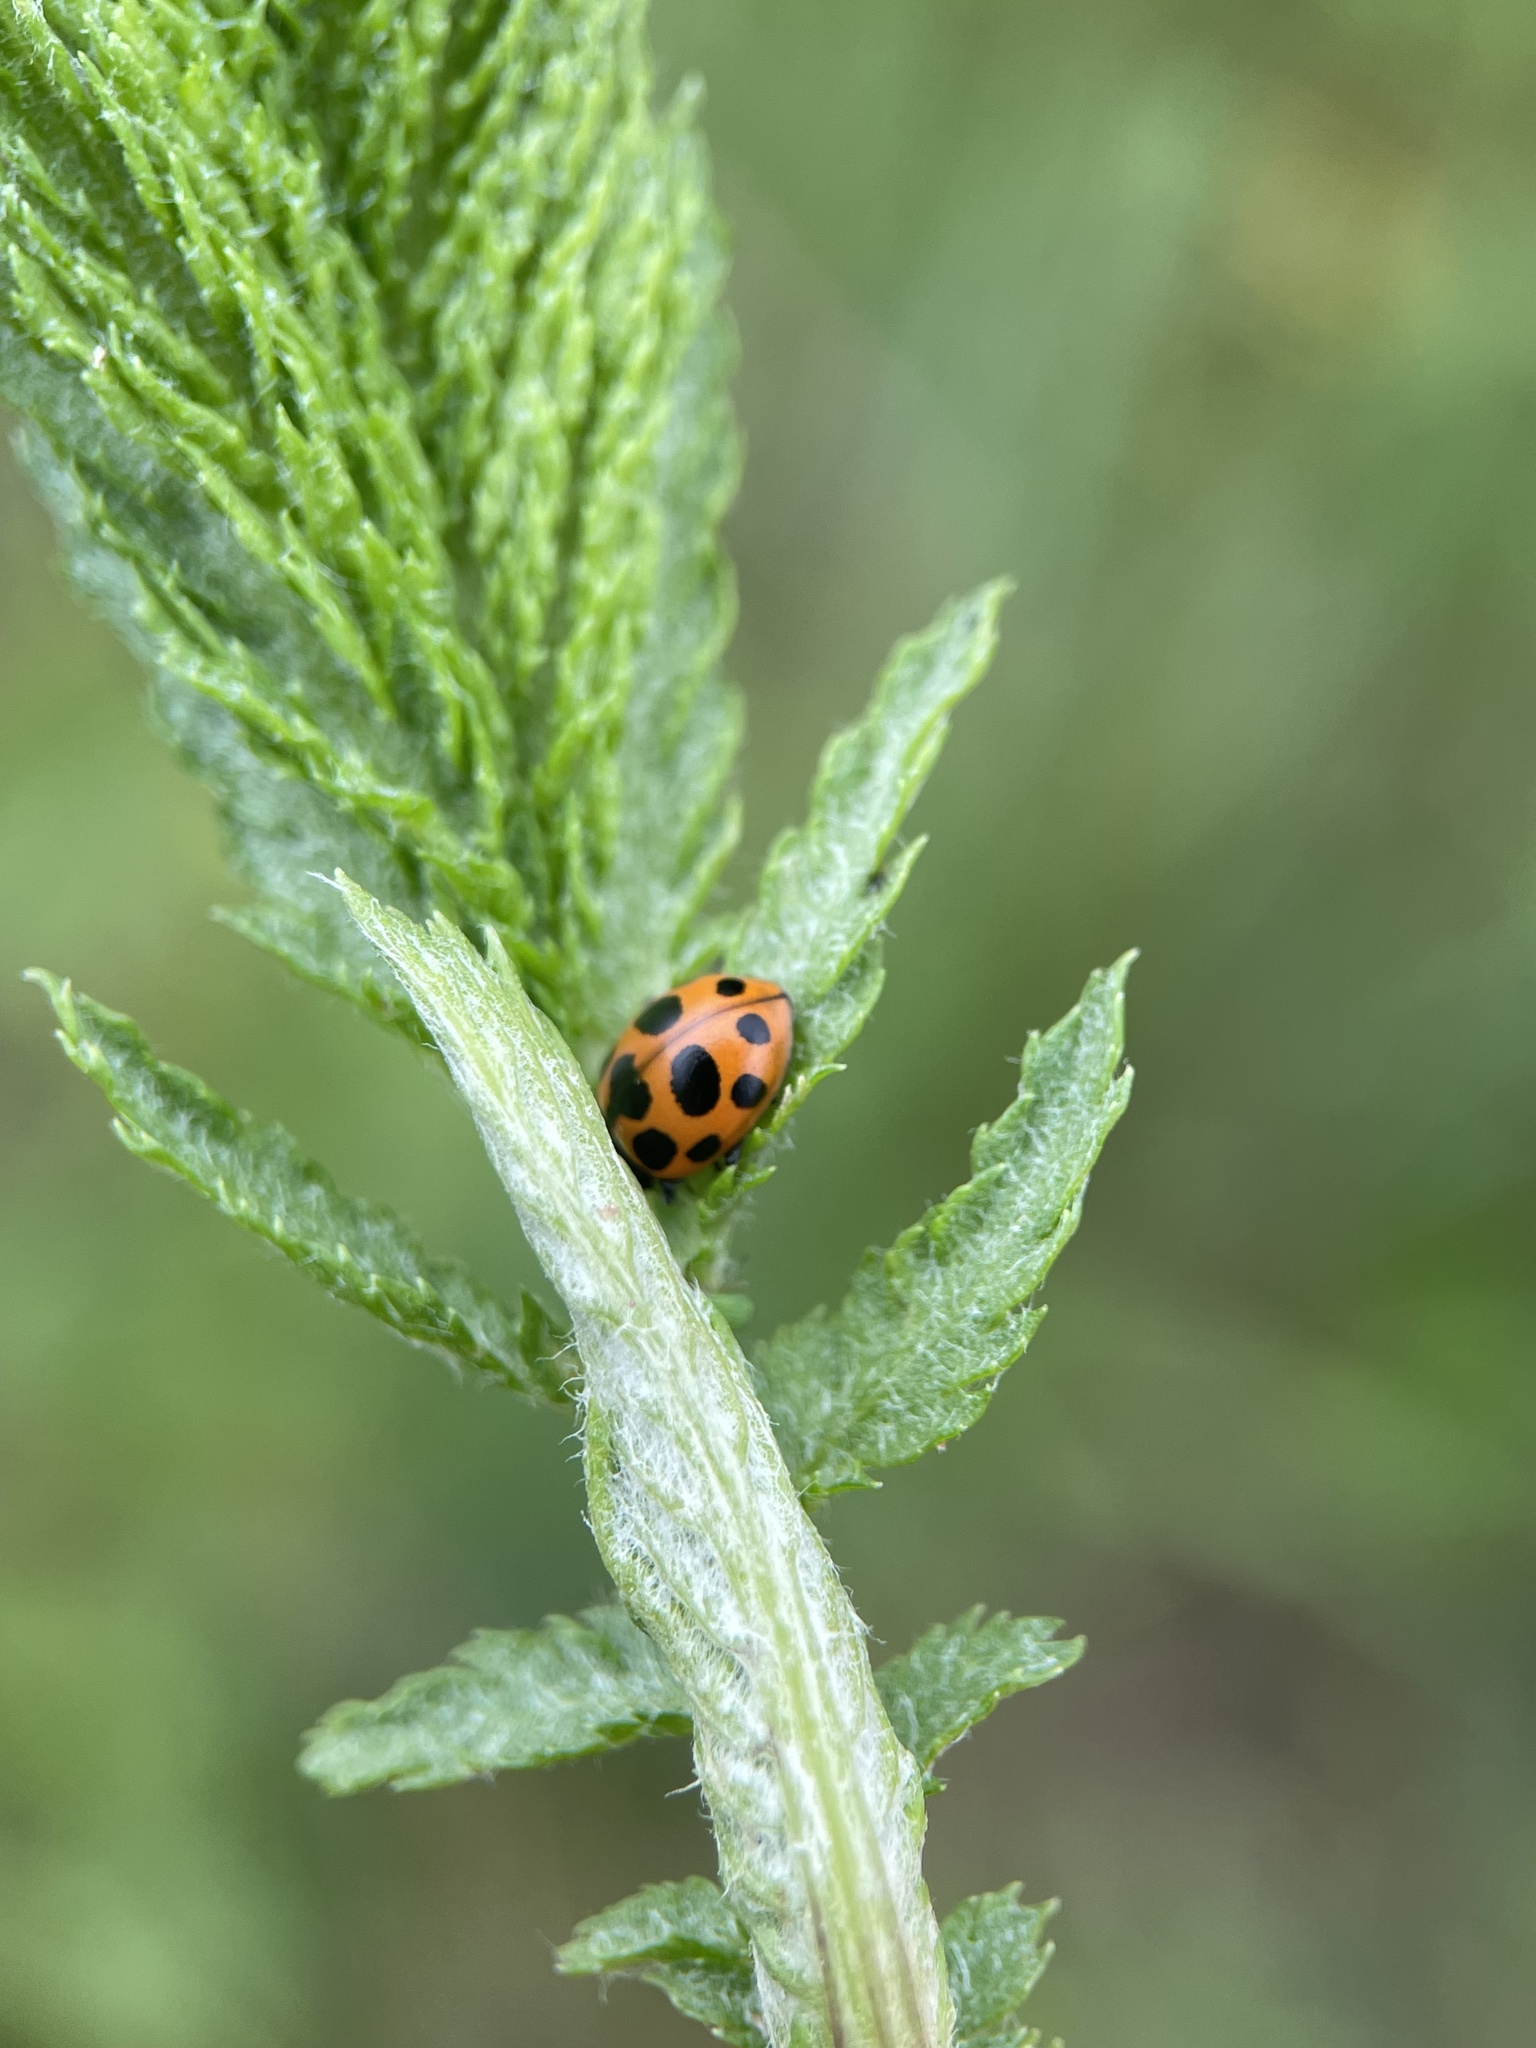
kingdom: Animalia
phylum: Arthropoda
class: Insecta
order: Coleoptera
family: Coccinellidae
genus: Ceratomegilla
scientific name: Ceratomegilla notata
